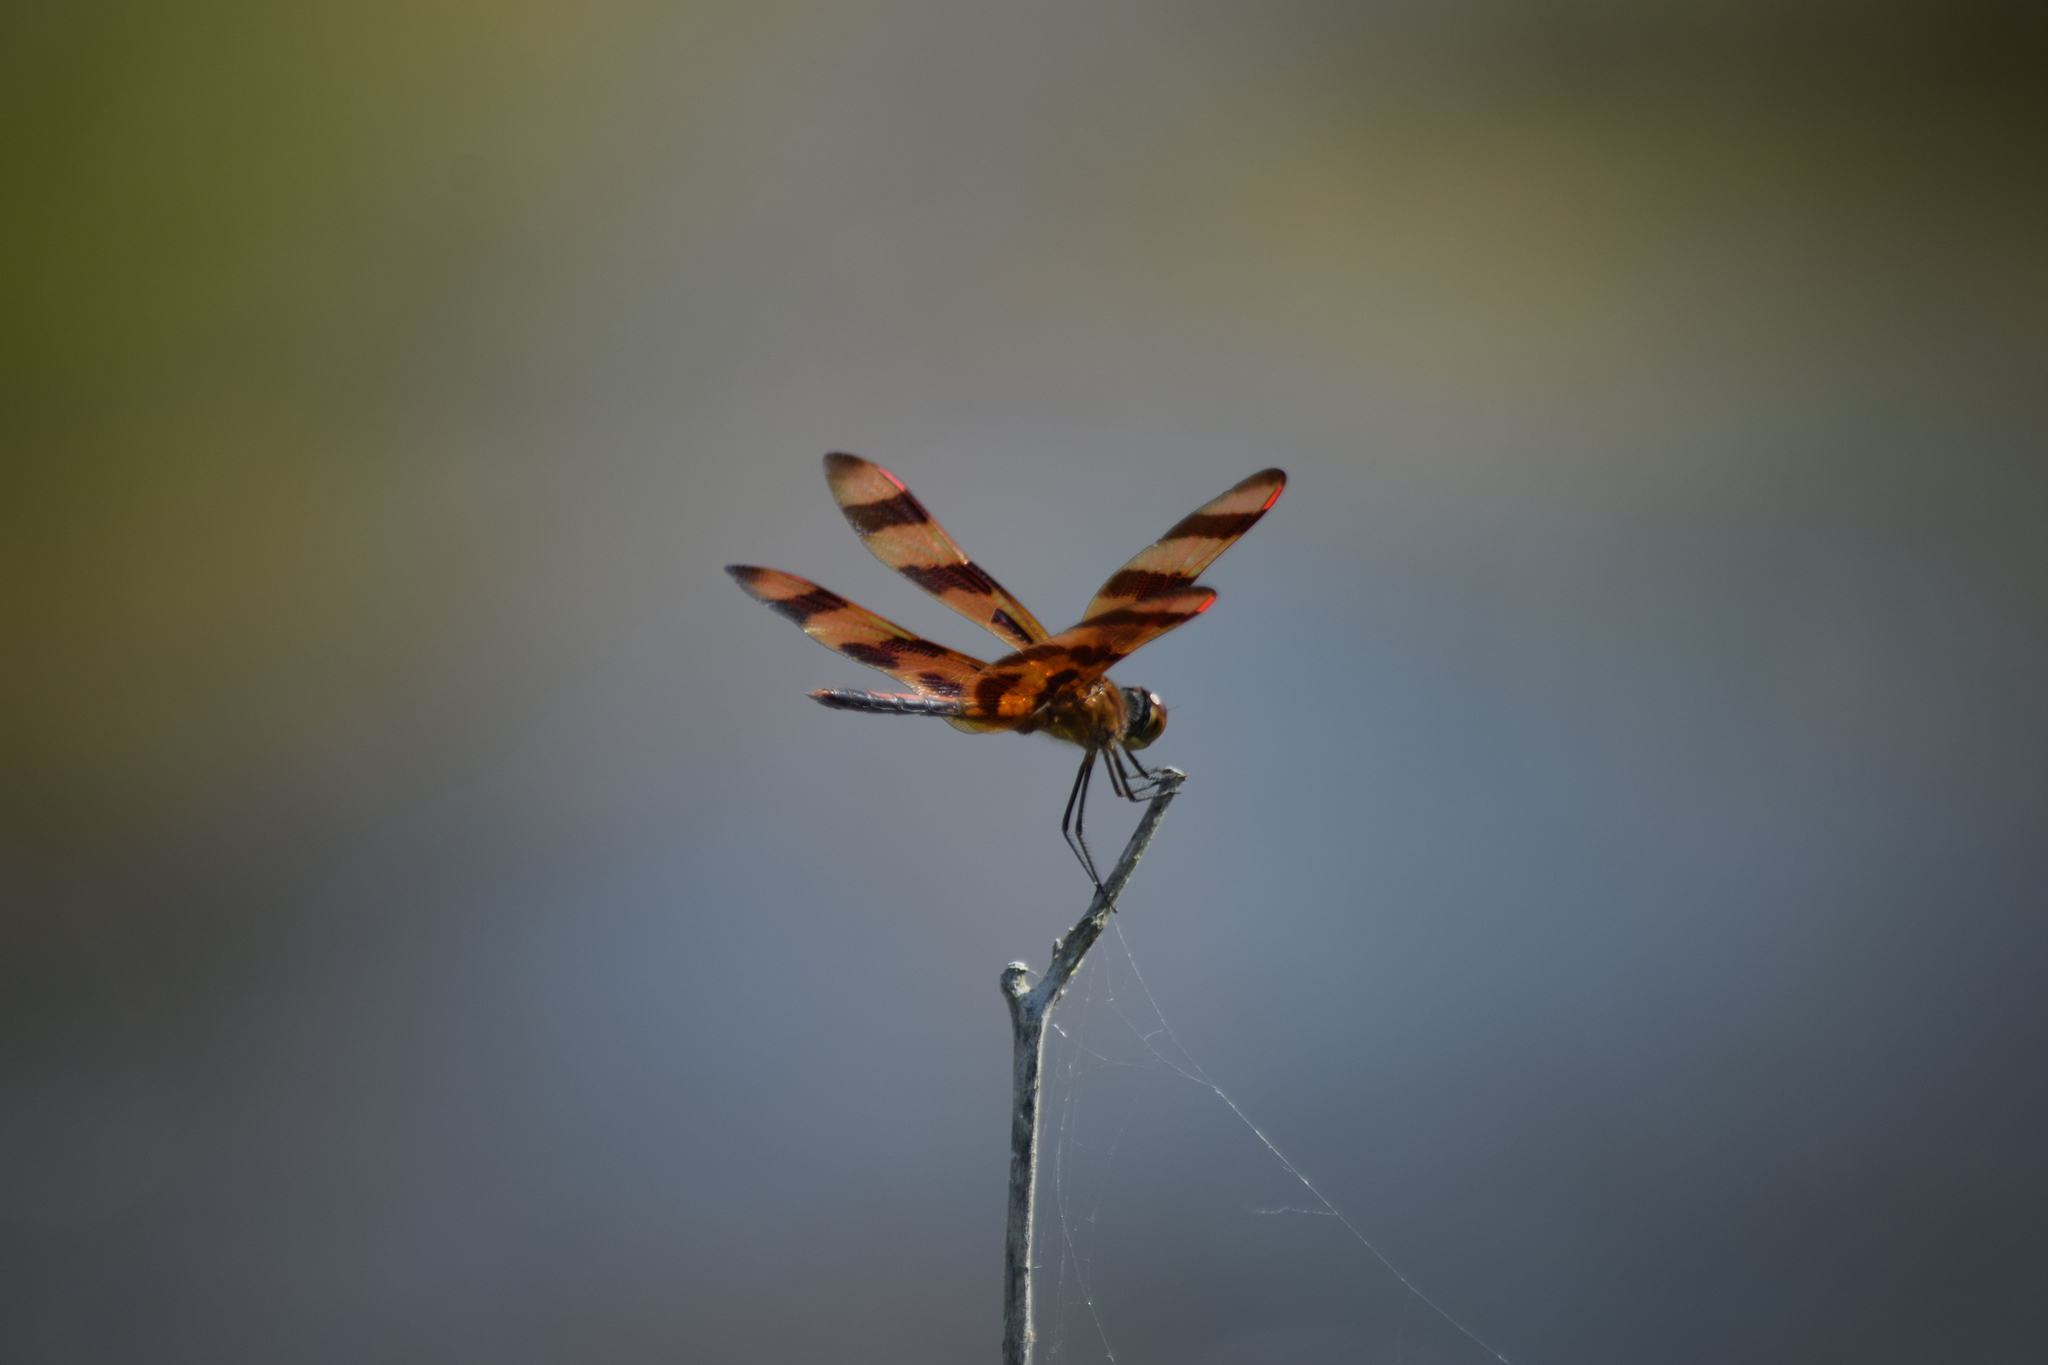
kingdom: Animalia
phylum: Arthropoda
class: Insecta
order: Odonata
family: Libellulidae
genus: Celithemis
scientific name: Celithemis eponina
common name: Halloween pennant
